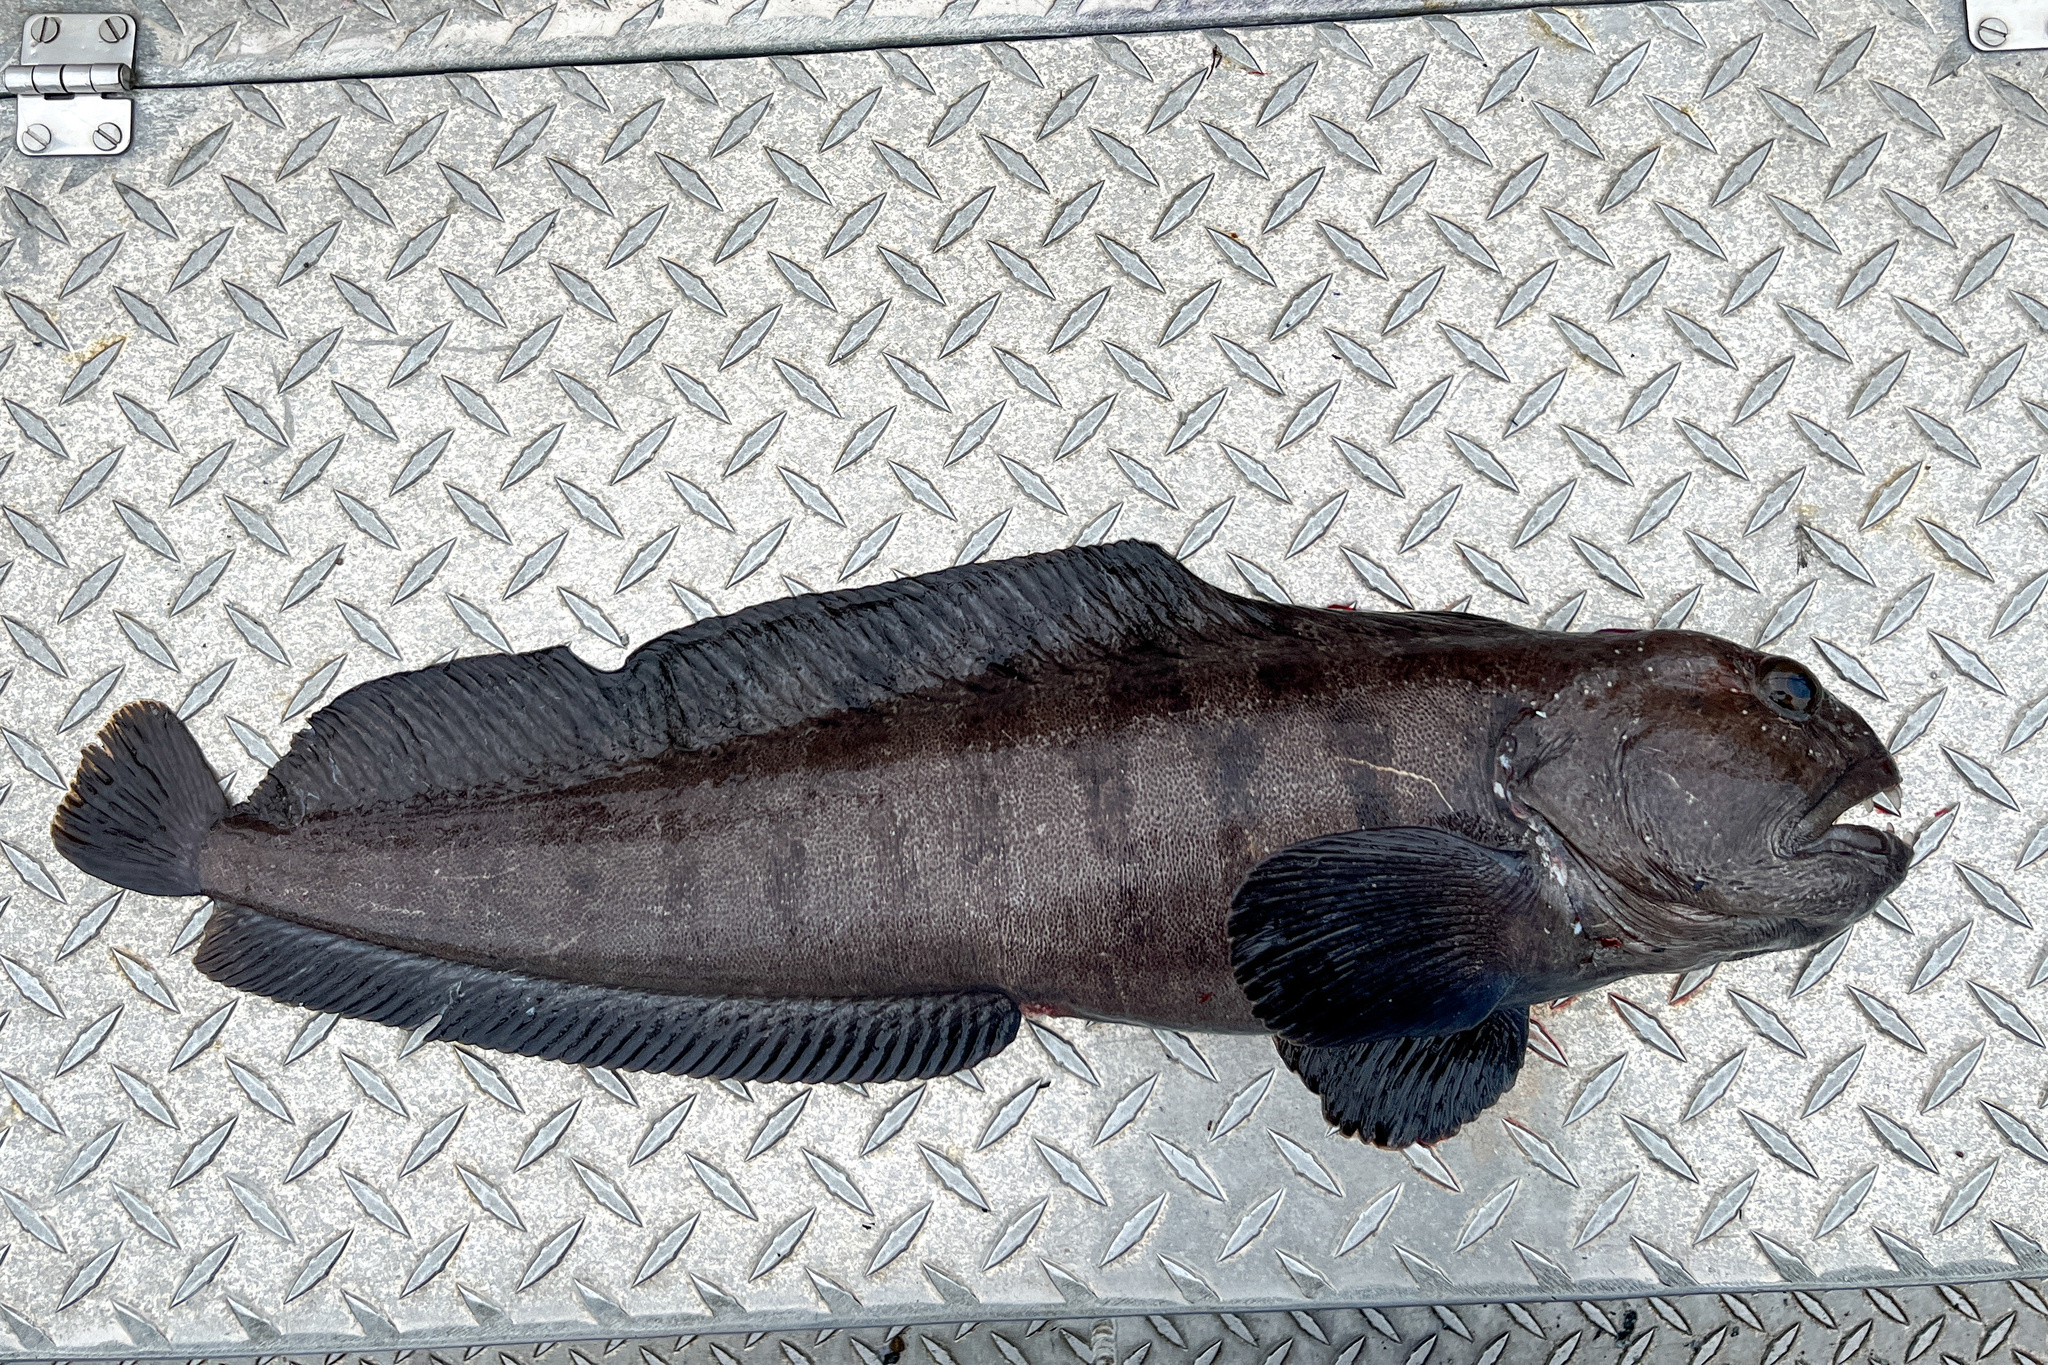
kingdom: Animalia
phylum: Chordata
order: Perciformes
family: Anarhichadidae
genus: Anarhichas
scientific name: Anarhichas lupus
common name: Wolf-fish
